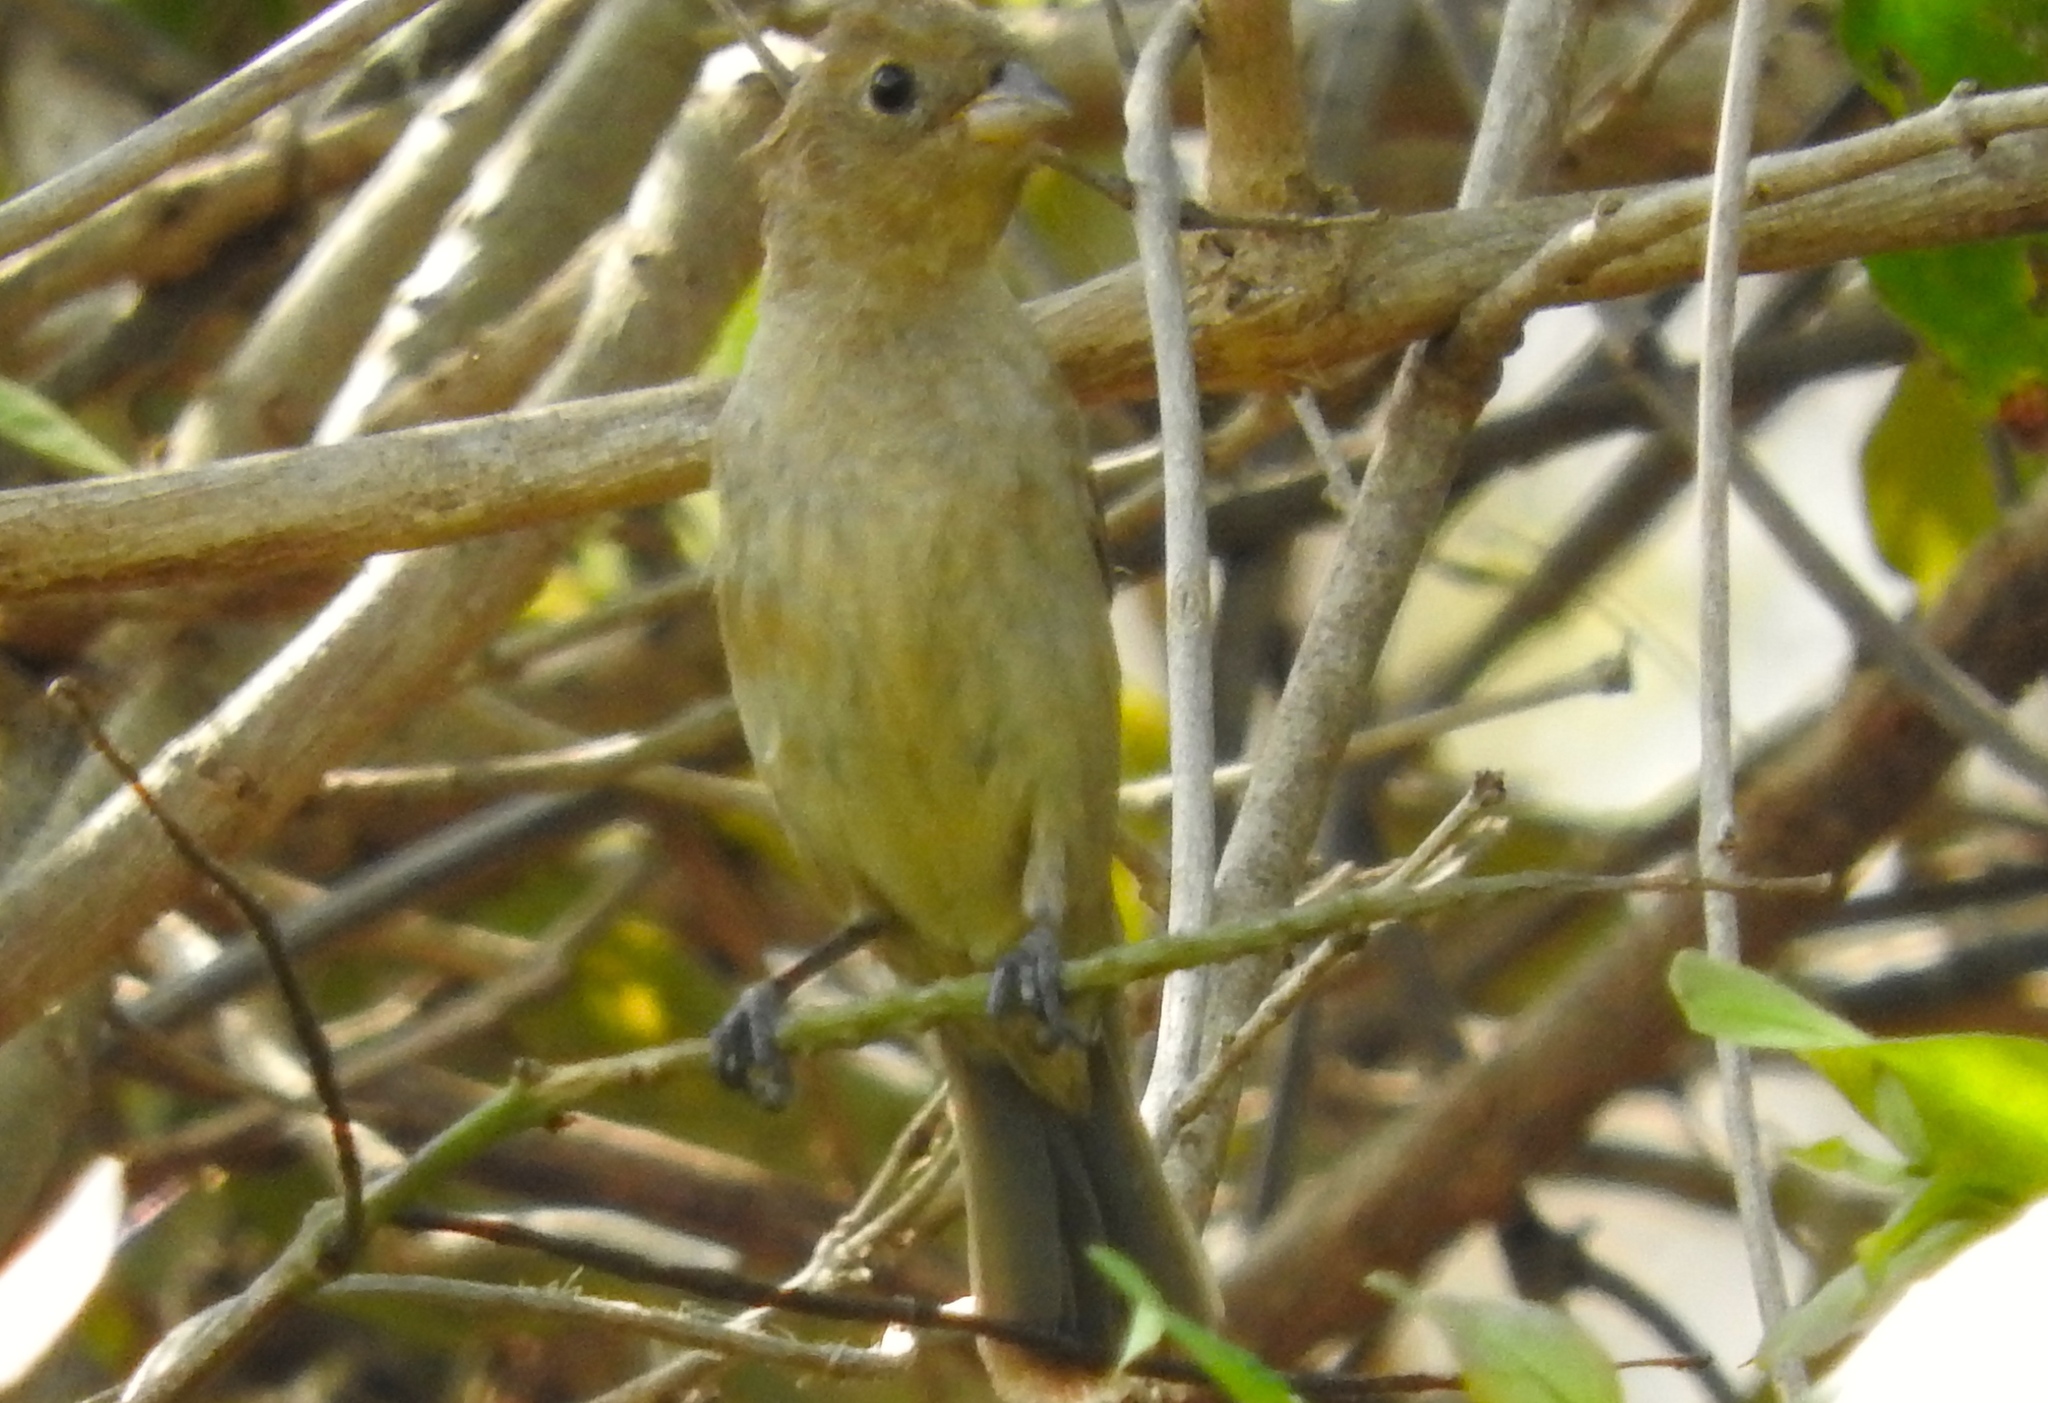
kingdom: Animalia
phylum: Chordata
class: Aves
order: Passeriformes
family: Cardinalidae
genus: Passerina
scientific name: Passerina versicolor
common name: Varied bunting
